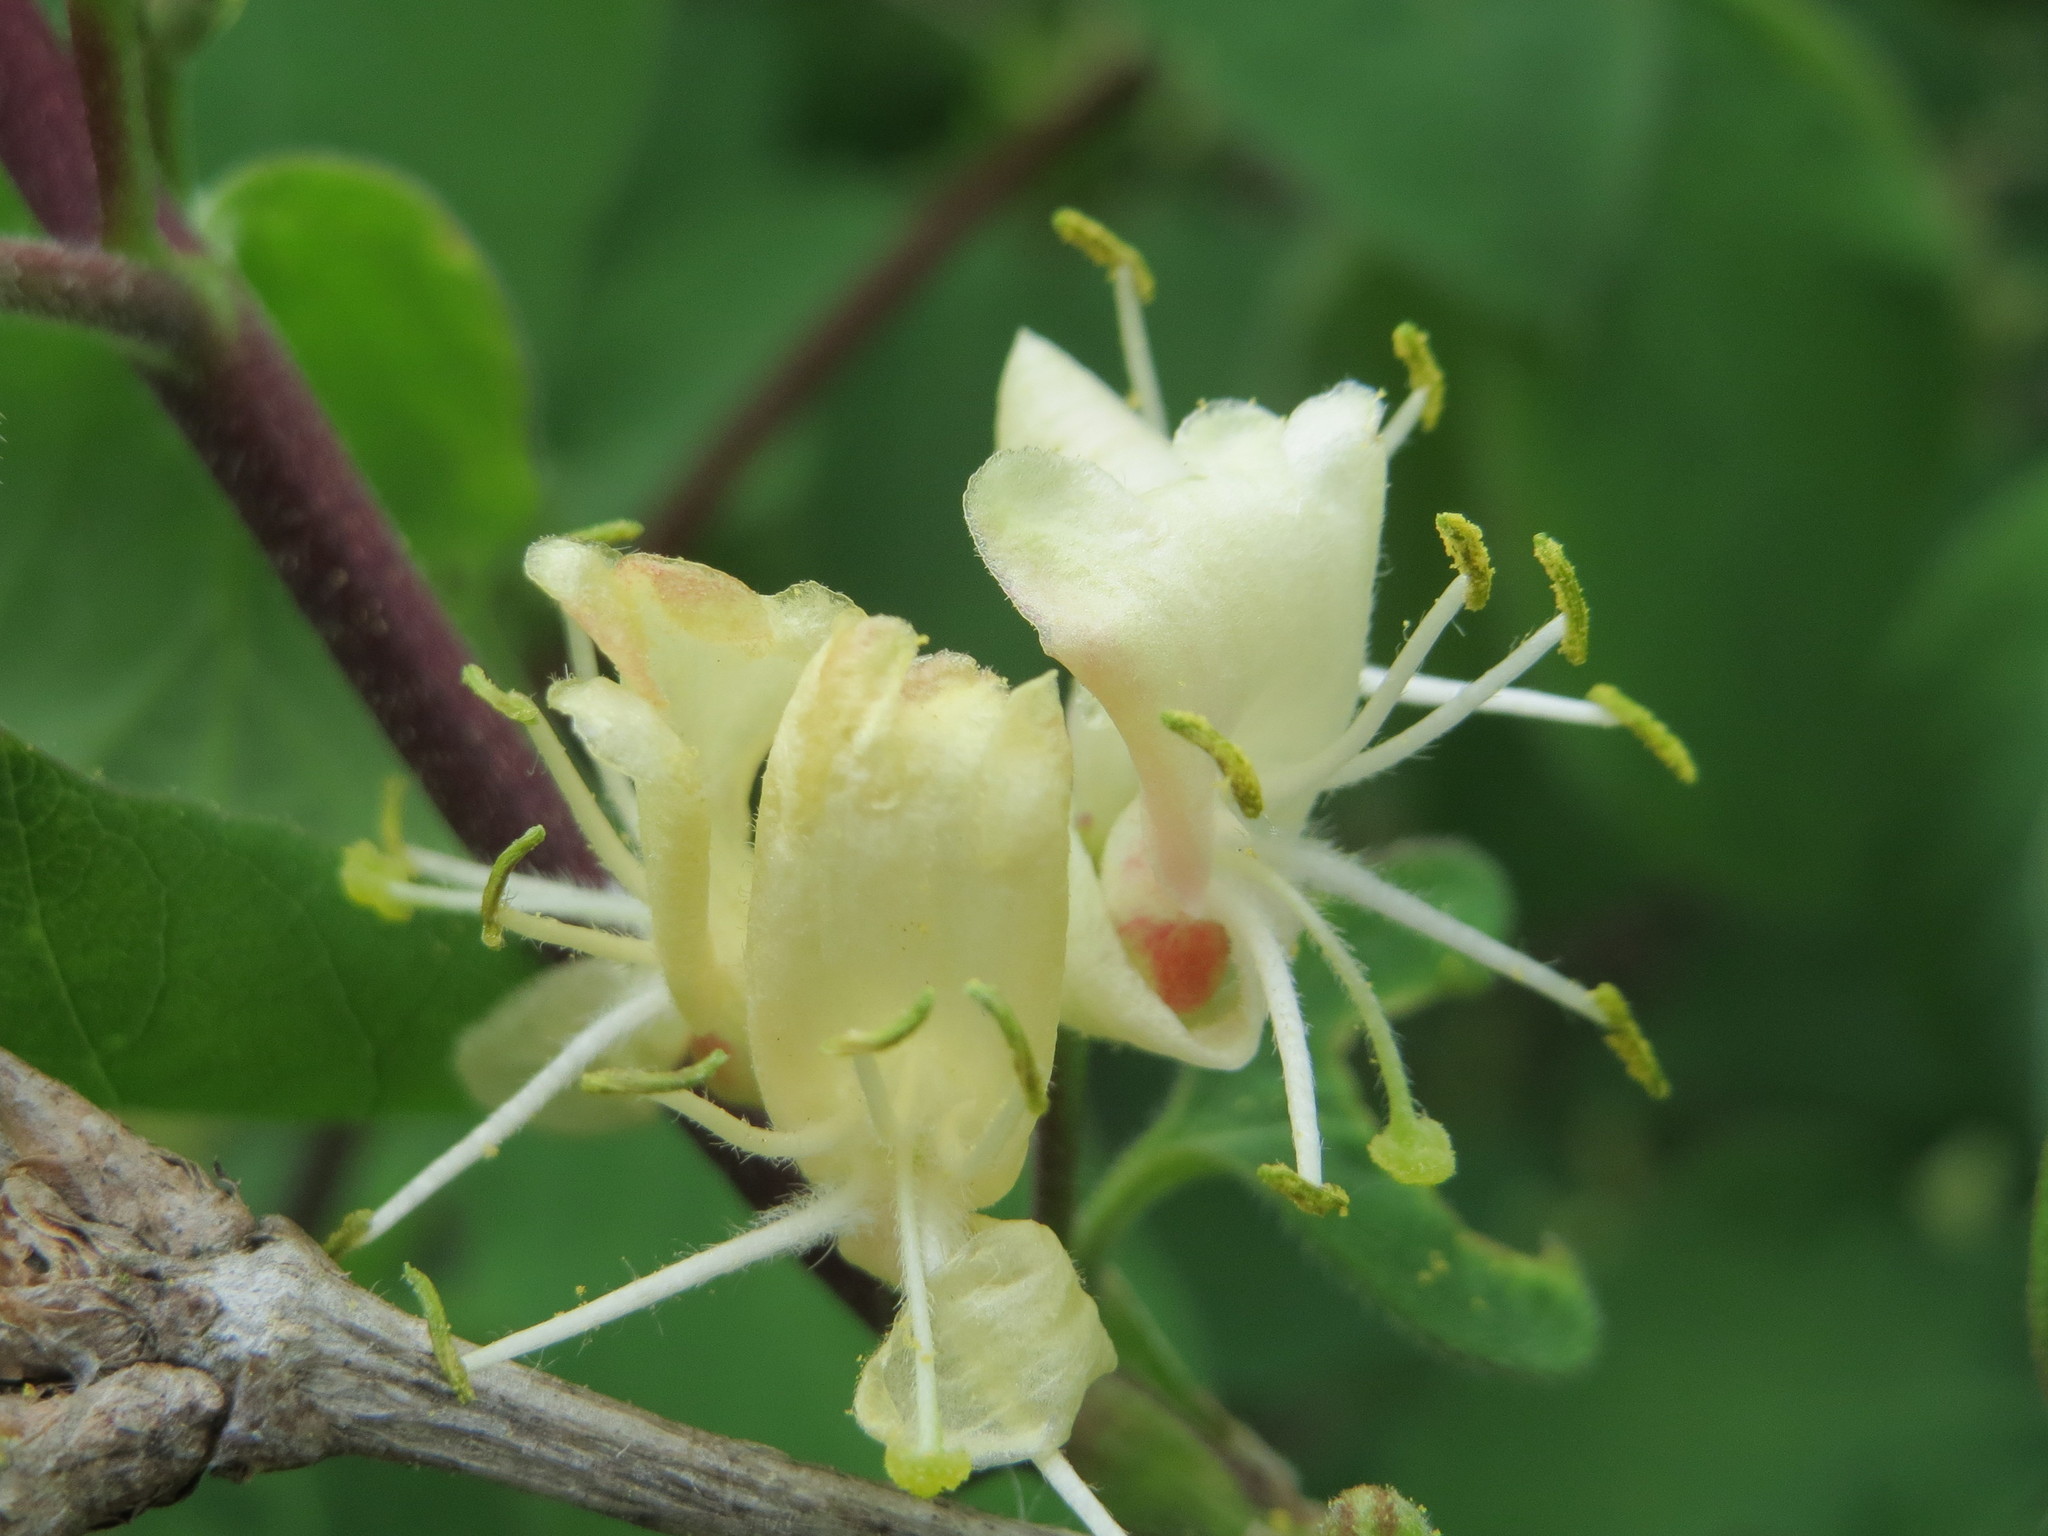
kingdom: Plantae
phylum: Tracheophyta
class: Magnoliopsida
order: Dipsacales
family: Caprifoliaceae
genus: Lonicera
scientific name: Lonicera xylosteum
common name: Fly honeysuckle
